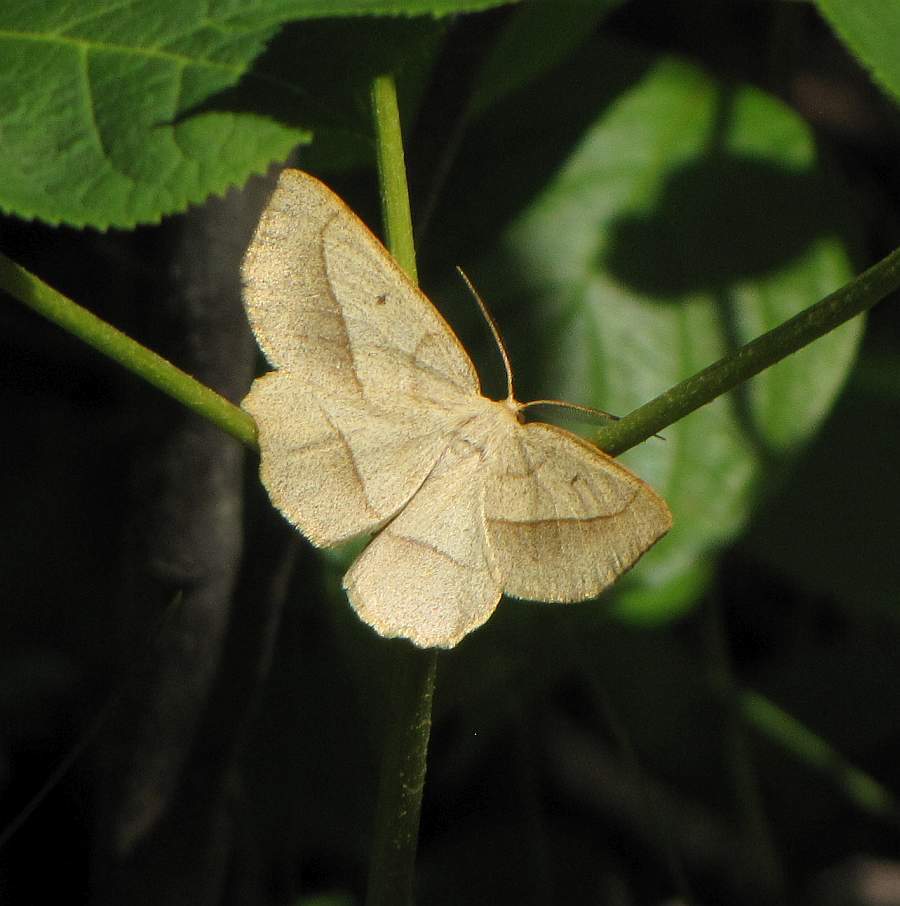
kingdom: Animalia
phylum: Arthropoda
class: Insecta
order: Lepidoptera
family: Geometridae
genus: Euchlaena
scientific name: Euchlaena irraria
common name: Least-marked euchlaena
